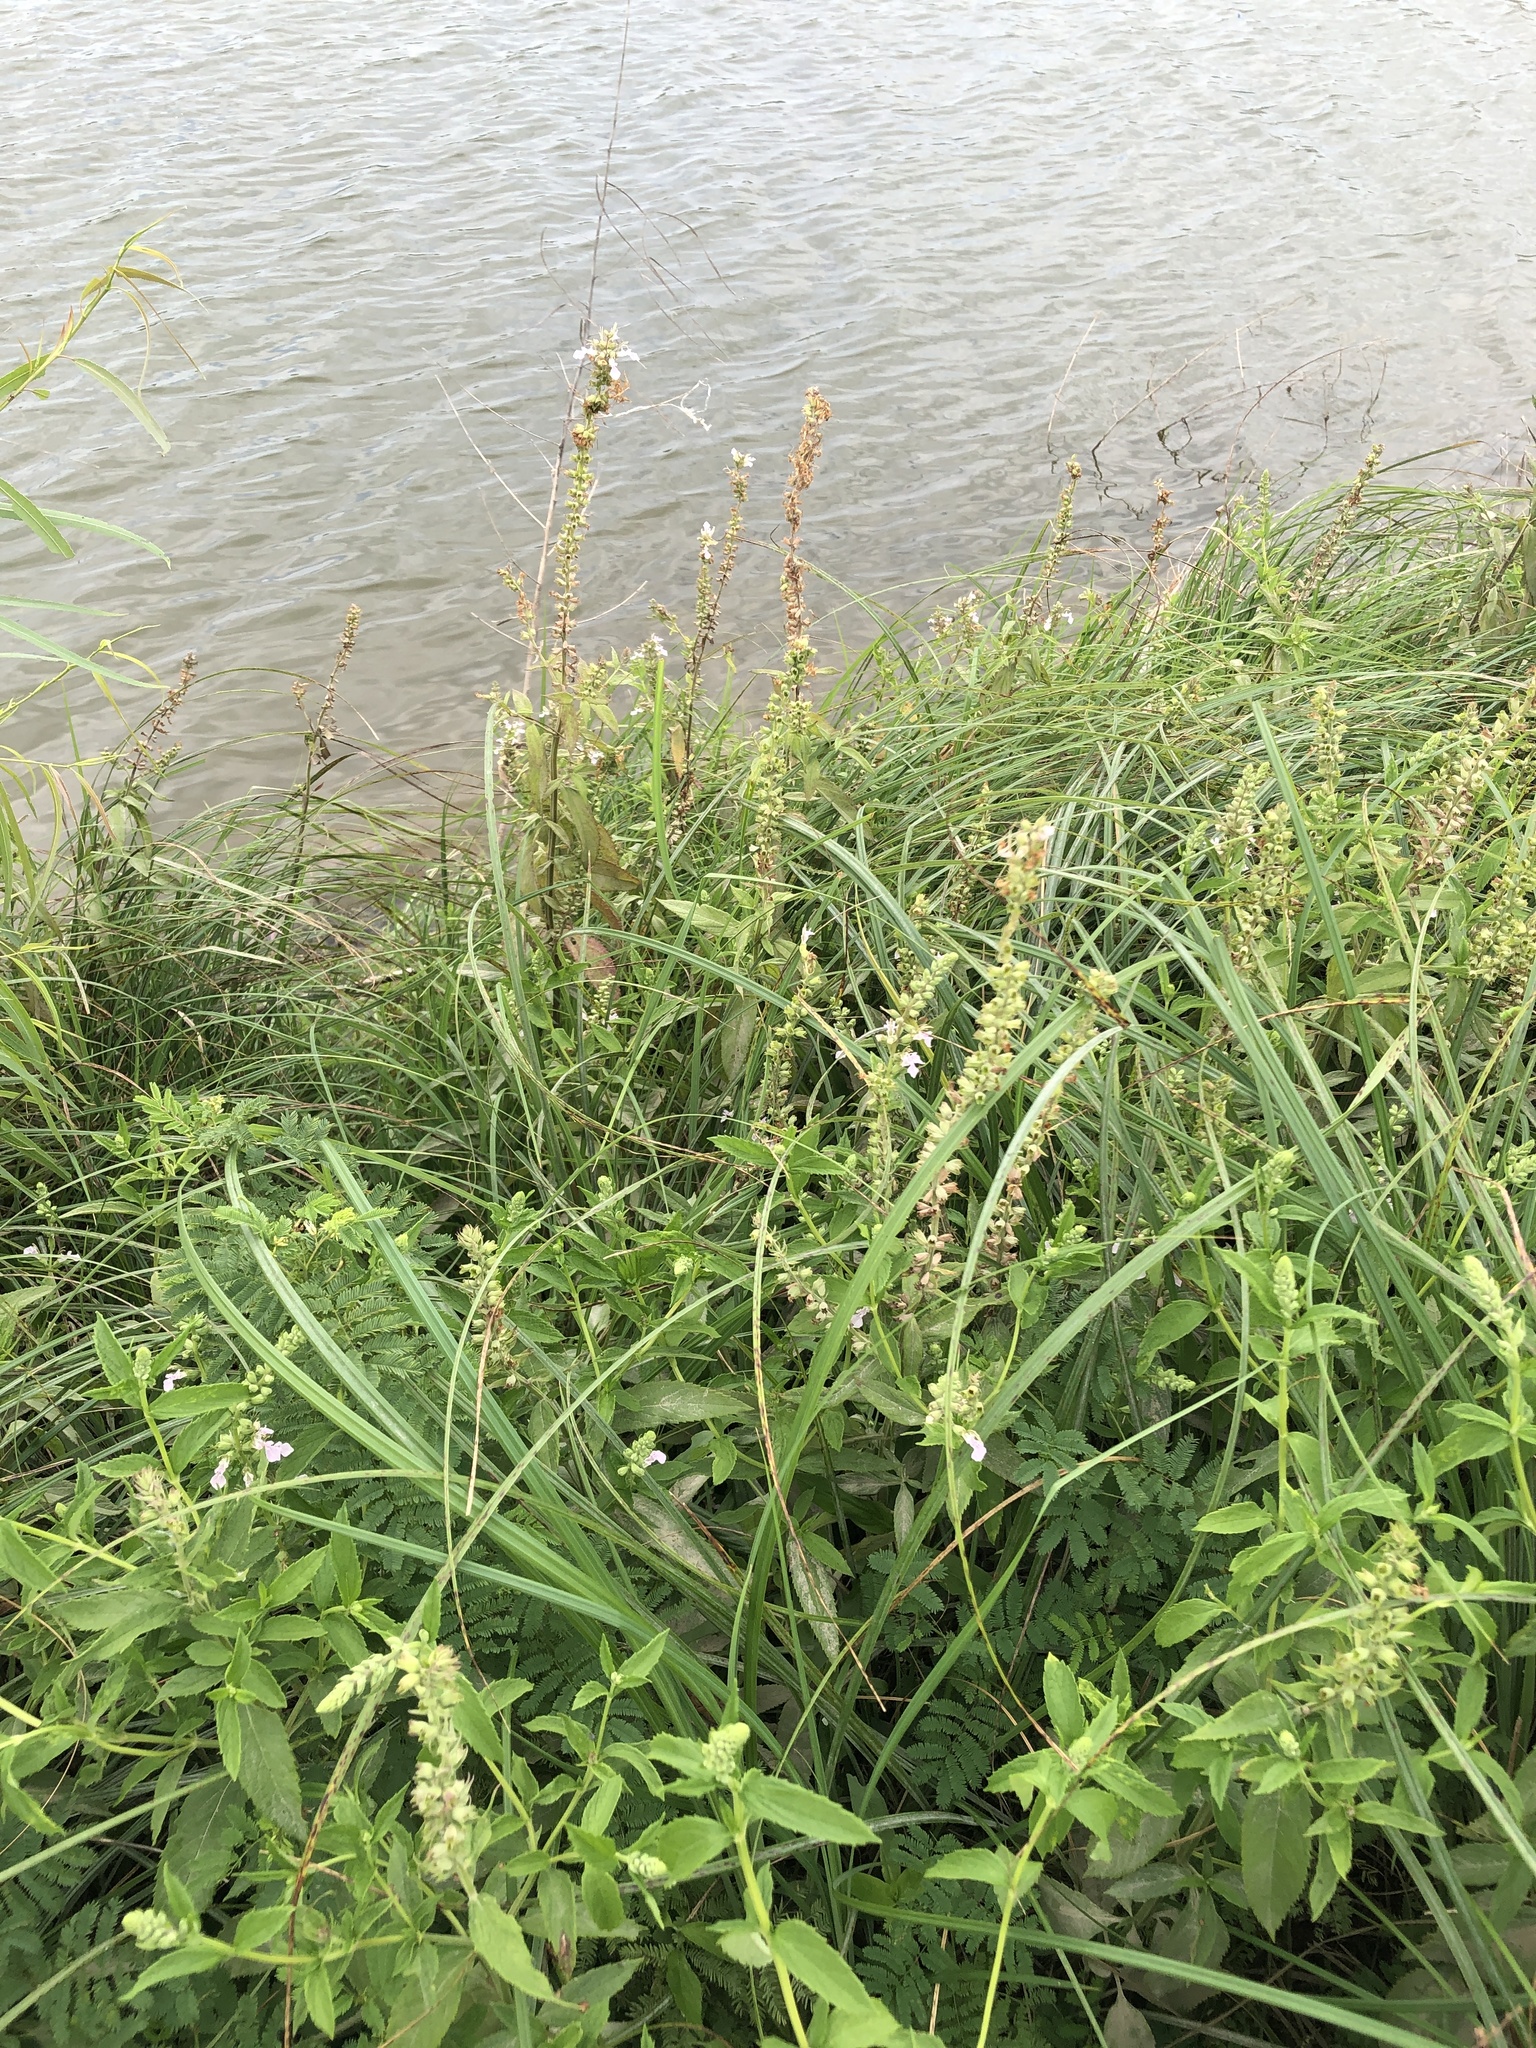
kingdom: Plantae
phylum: Tracheophyta
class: Magnoliopsida
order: Lamiales
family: Lamiaceae
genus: Teucrium
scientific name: Teucrium canadense
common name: American germander
